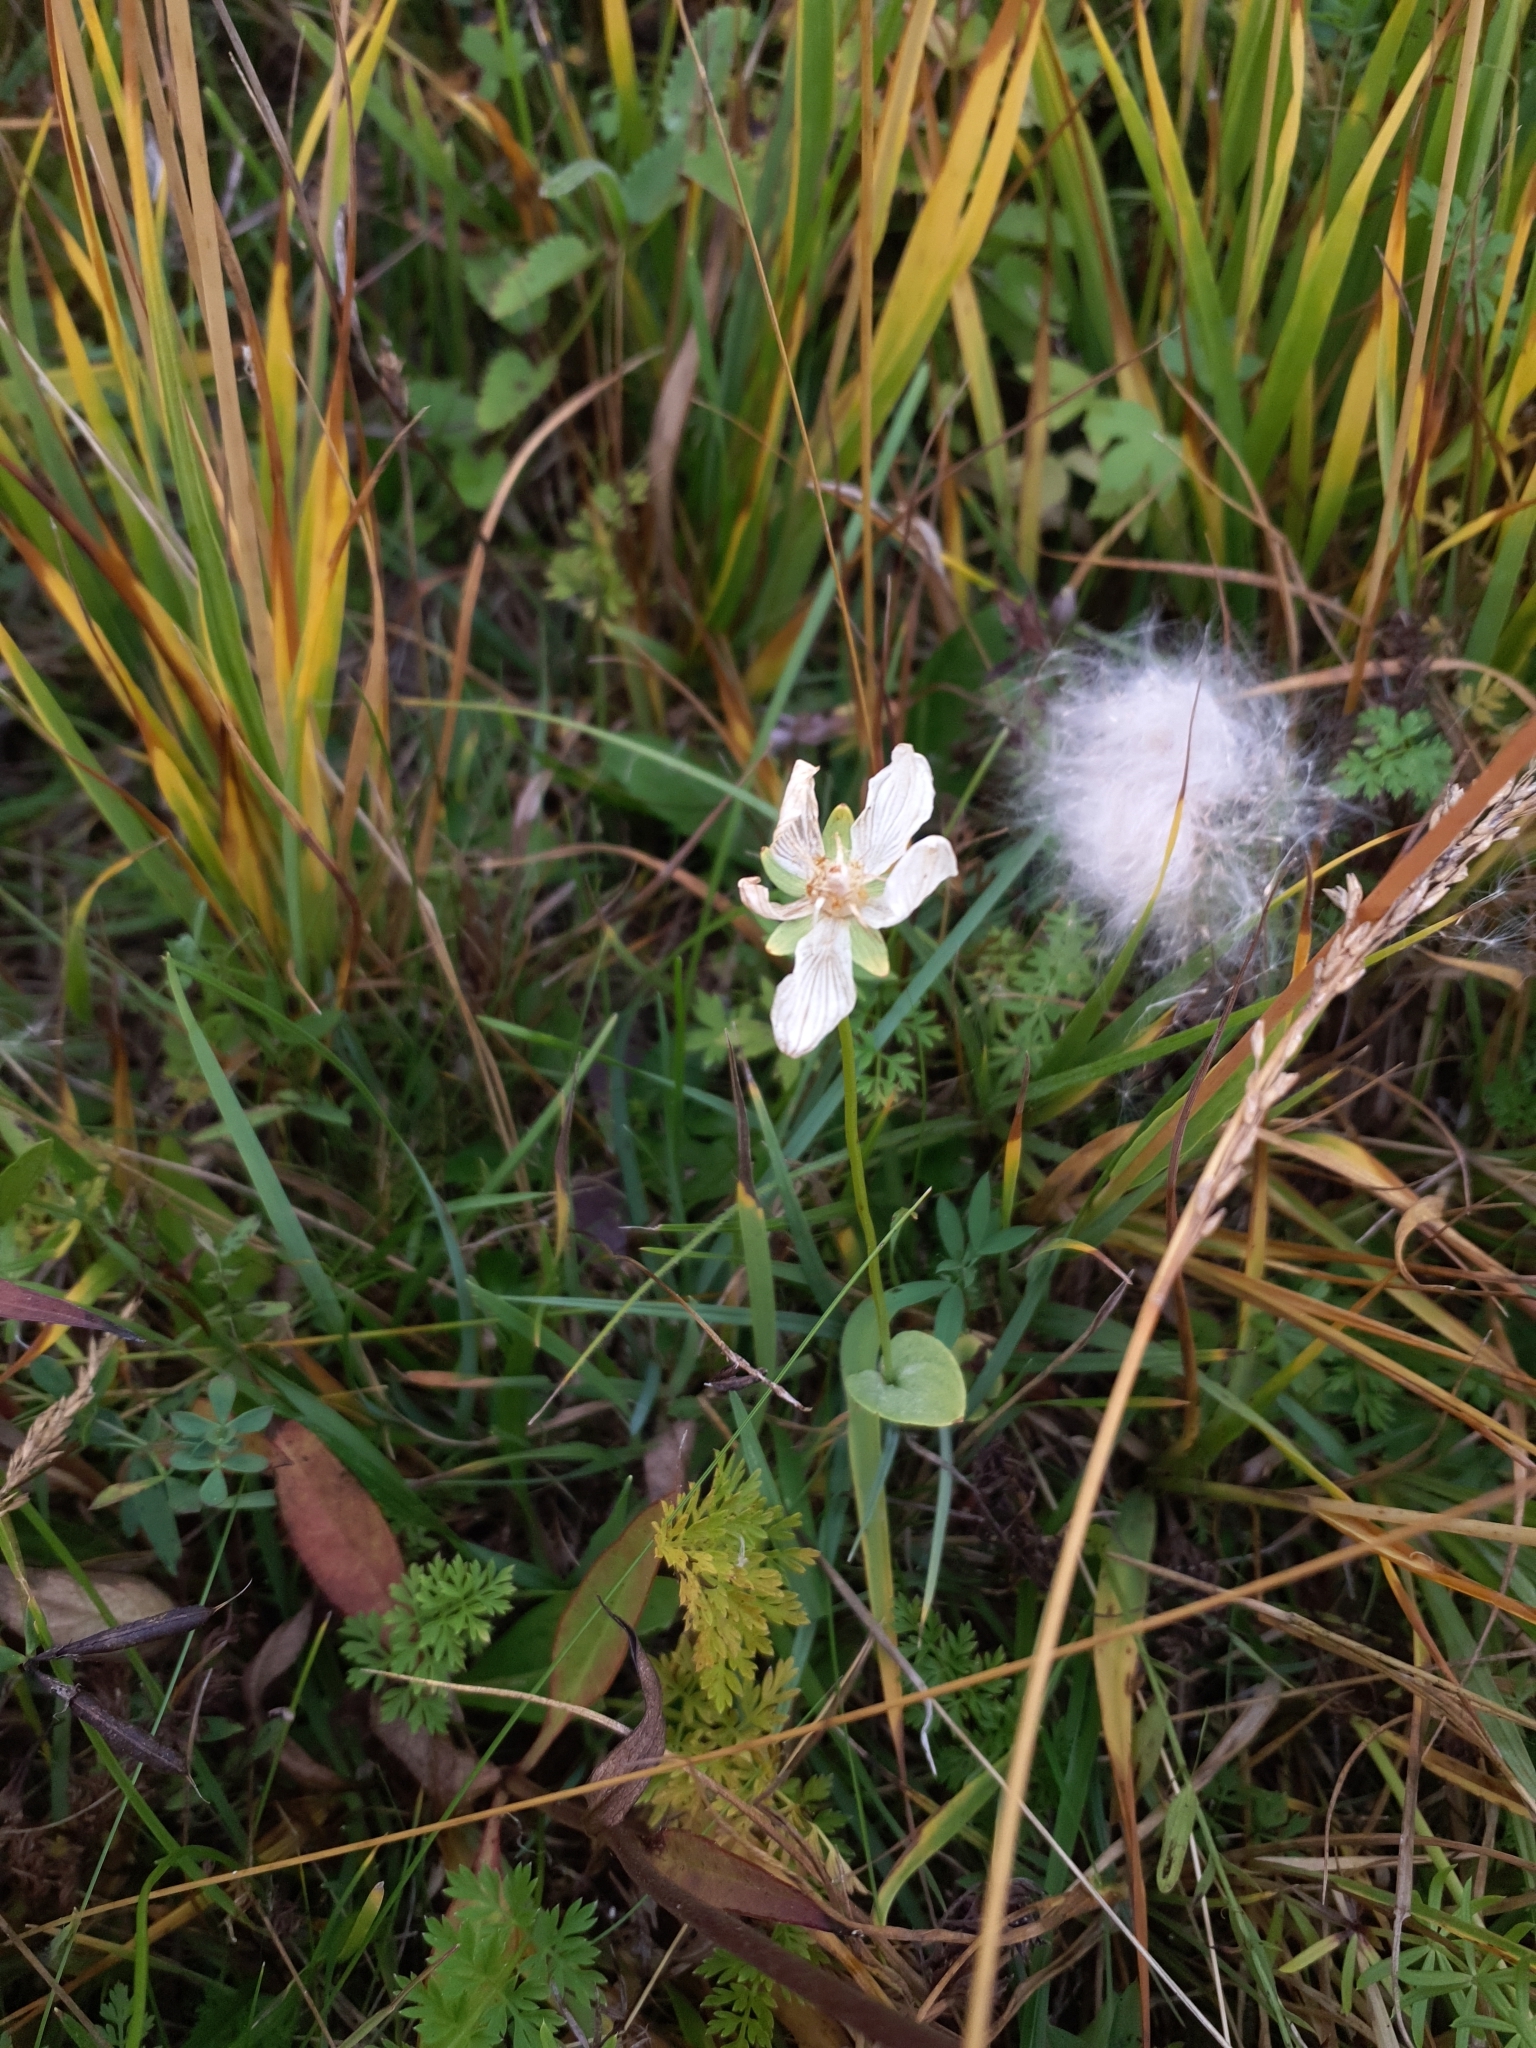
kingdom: Plantae
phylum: Tracheophyta
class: Magnoliopsida
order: Celastrales
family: Parnassiaceae
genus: Parnassia
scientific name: Parnassia palustris
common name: Grass-of-parnassus
